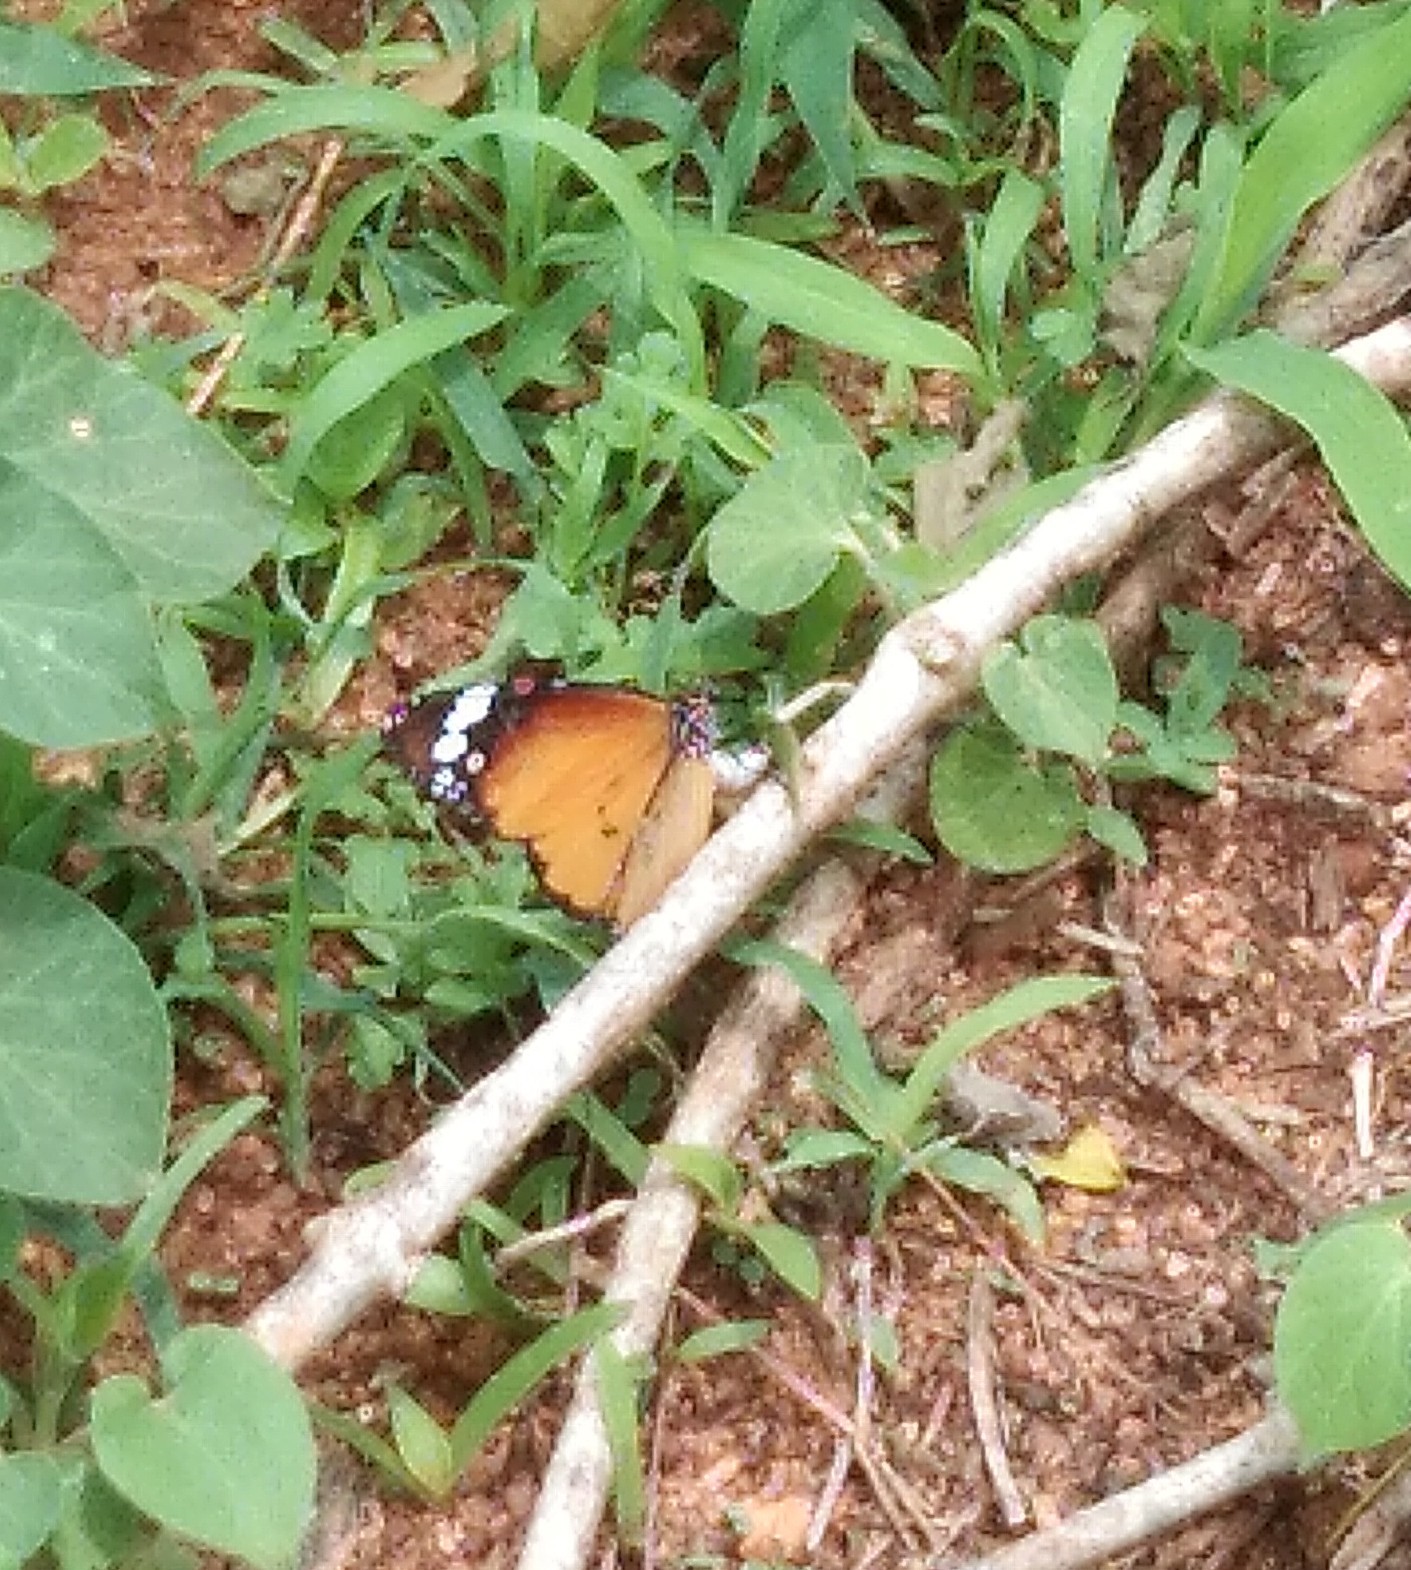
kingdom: Animalia
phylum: Arthropoda
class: Insecta
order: Lepidoptera
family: Nymphalidae
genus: Danaus
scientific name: Danaus chrysippus
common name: Plain tiger
